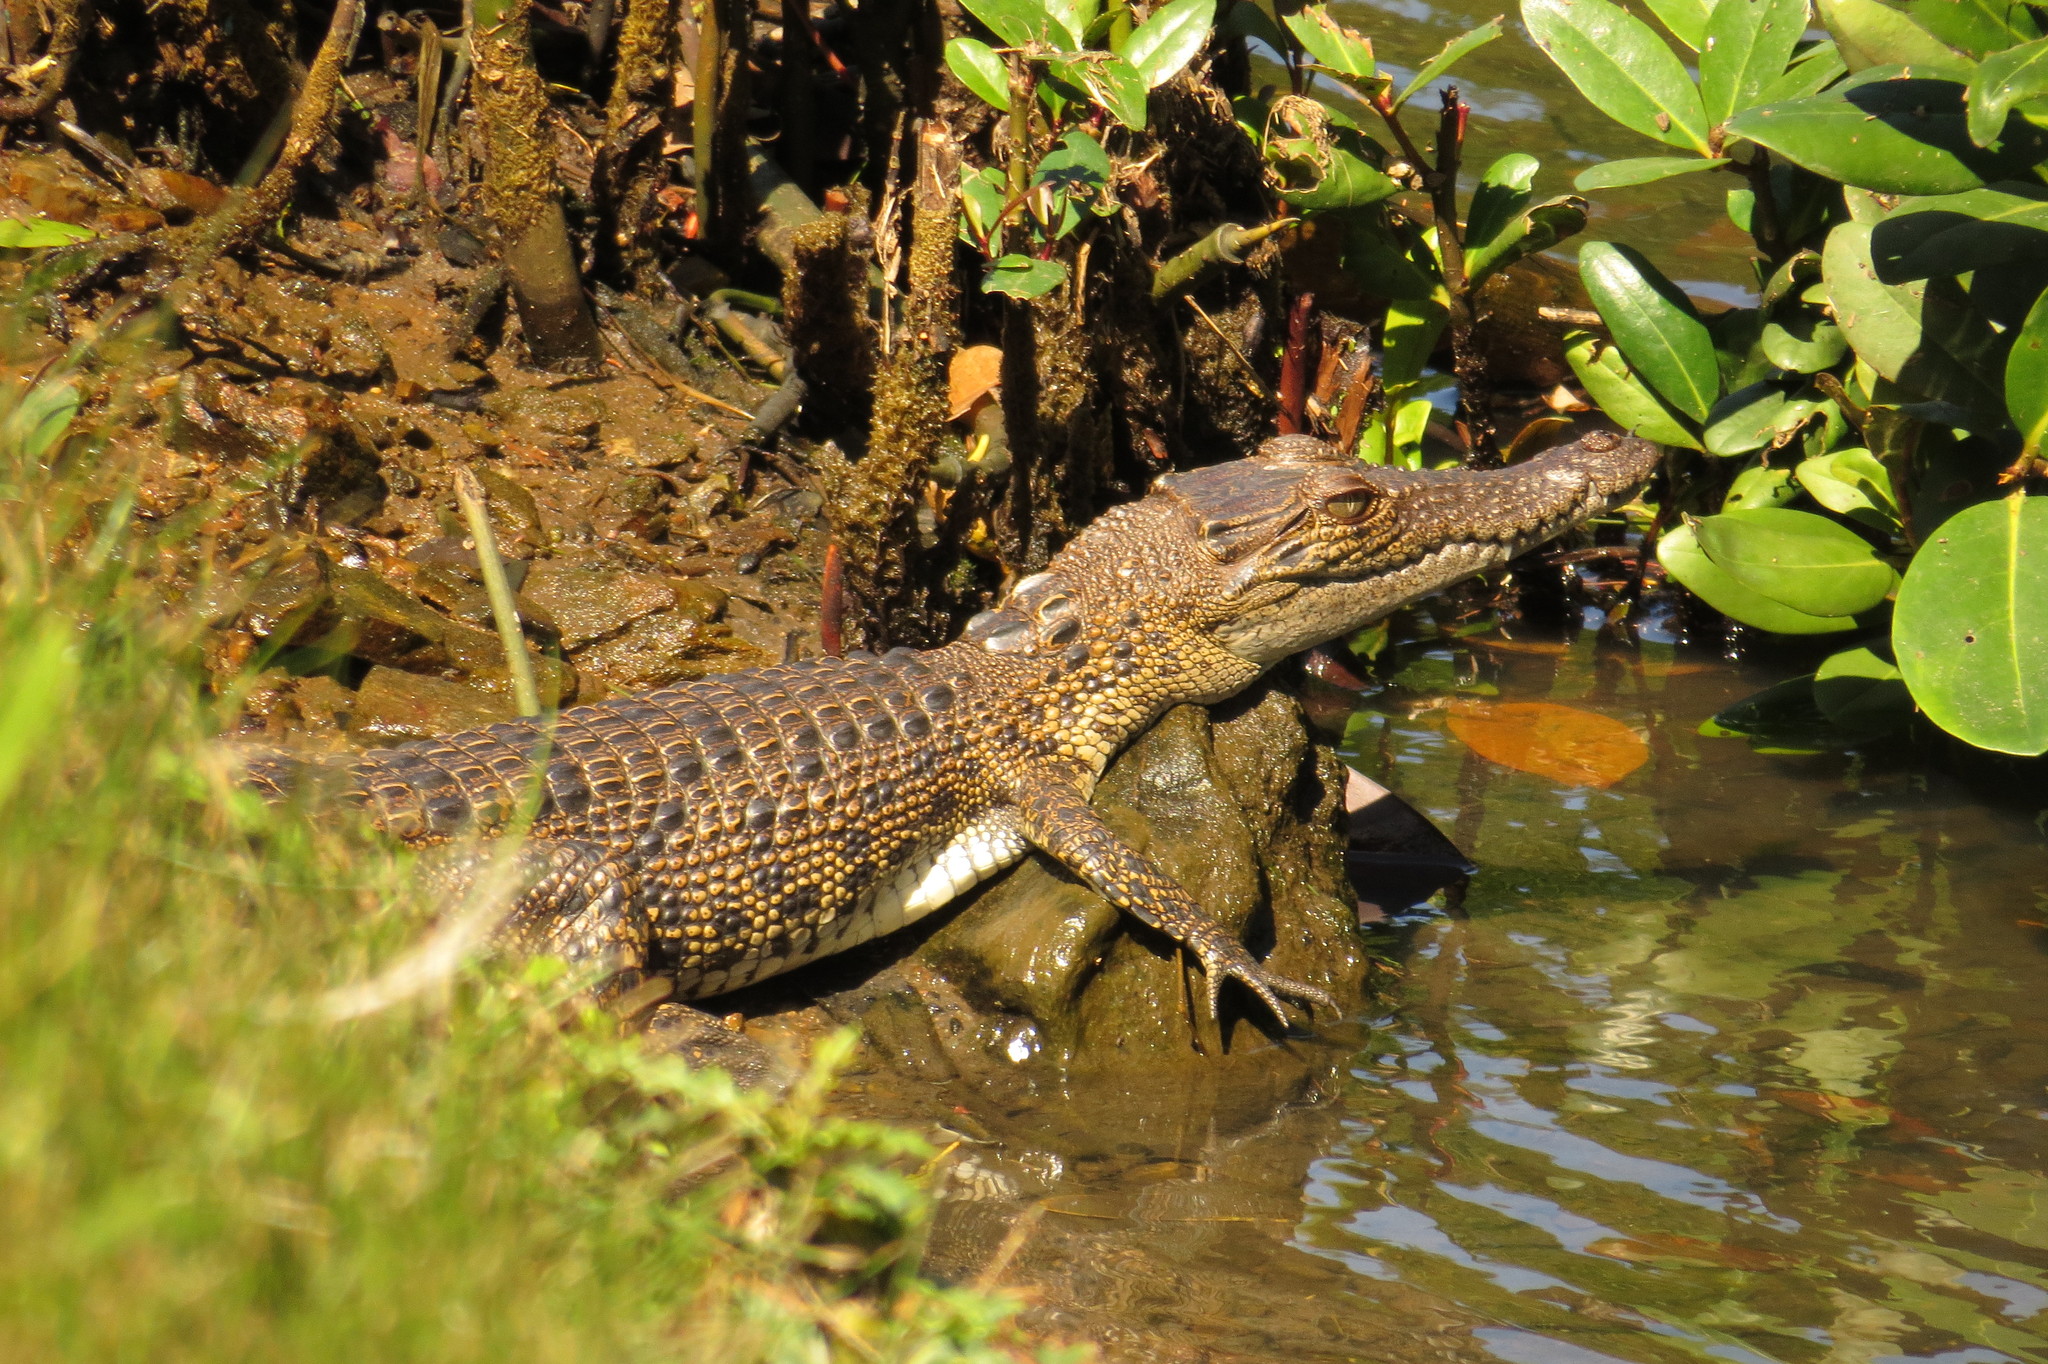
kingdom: Animalia
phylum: Chordata
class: Crocodylia
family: Crocodylidae
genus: Crocodylus
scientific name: Crocodylus porosus
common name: Saltwater crocodile
